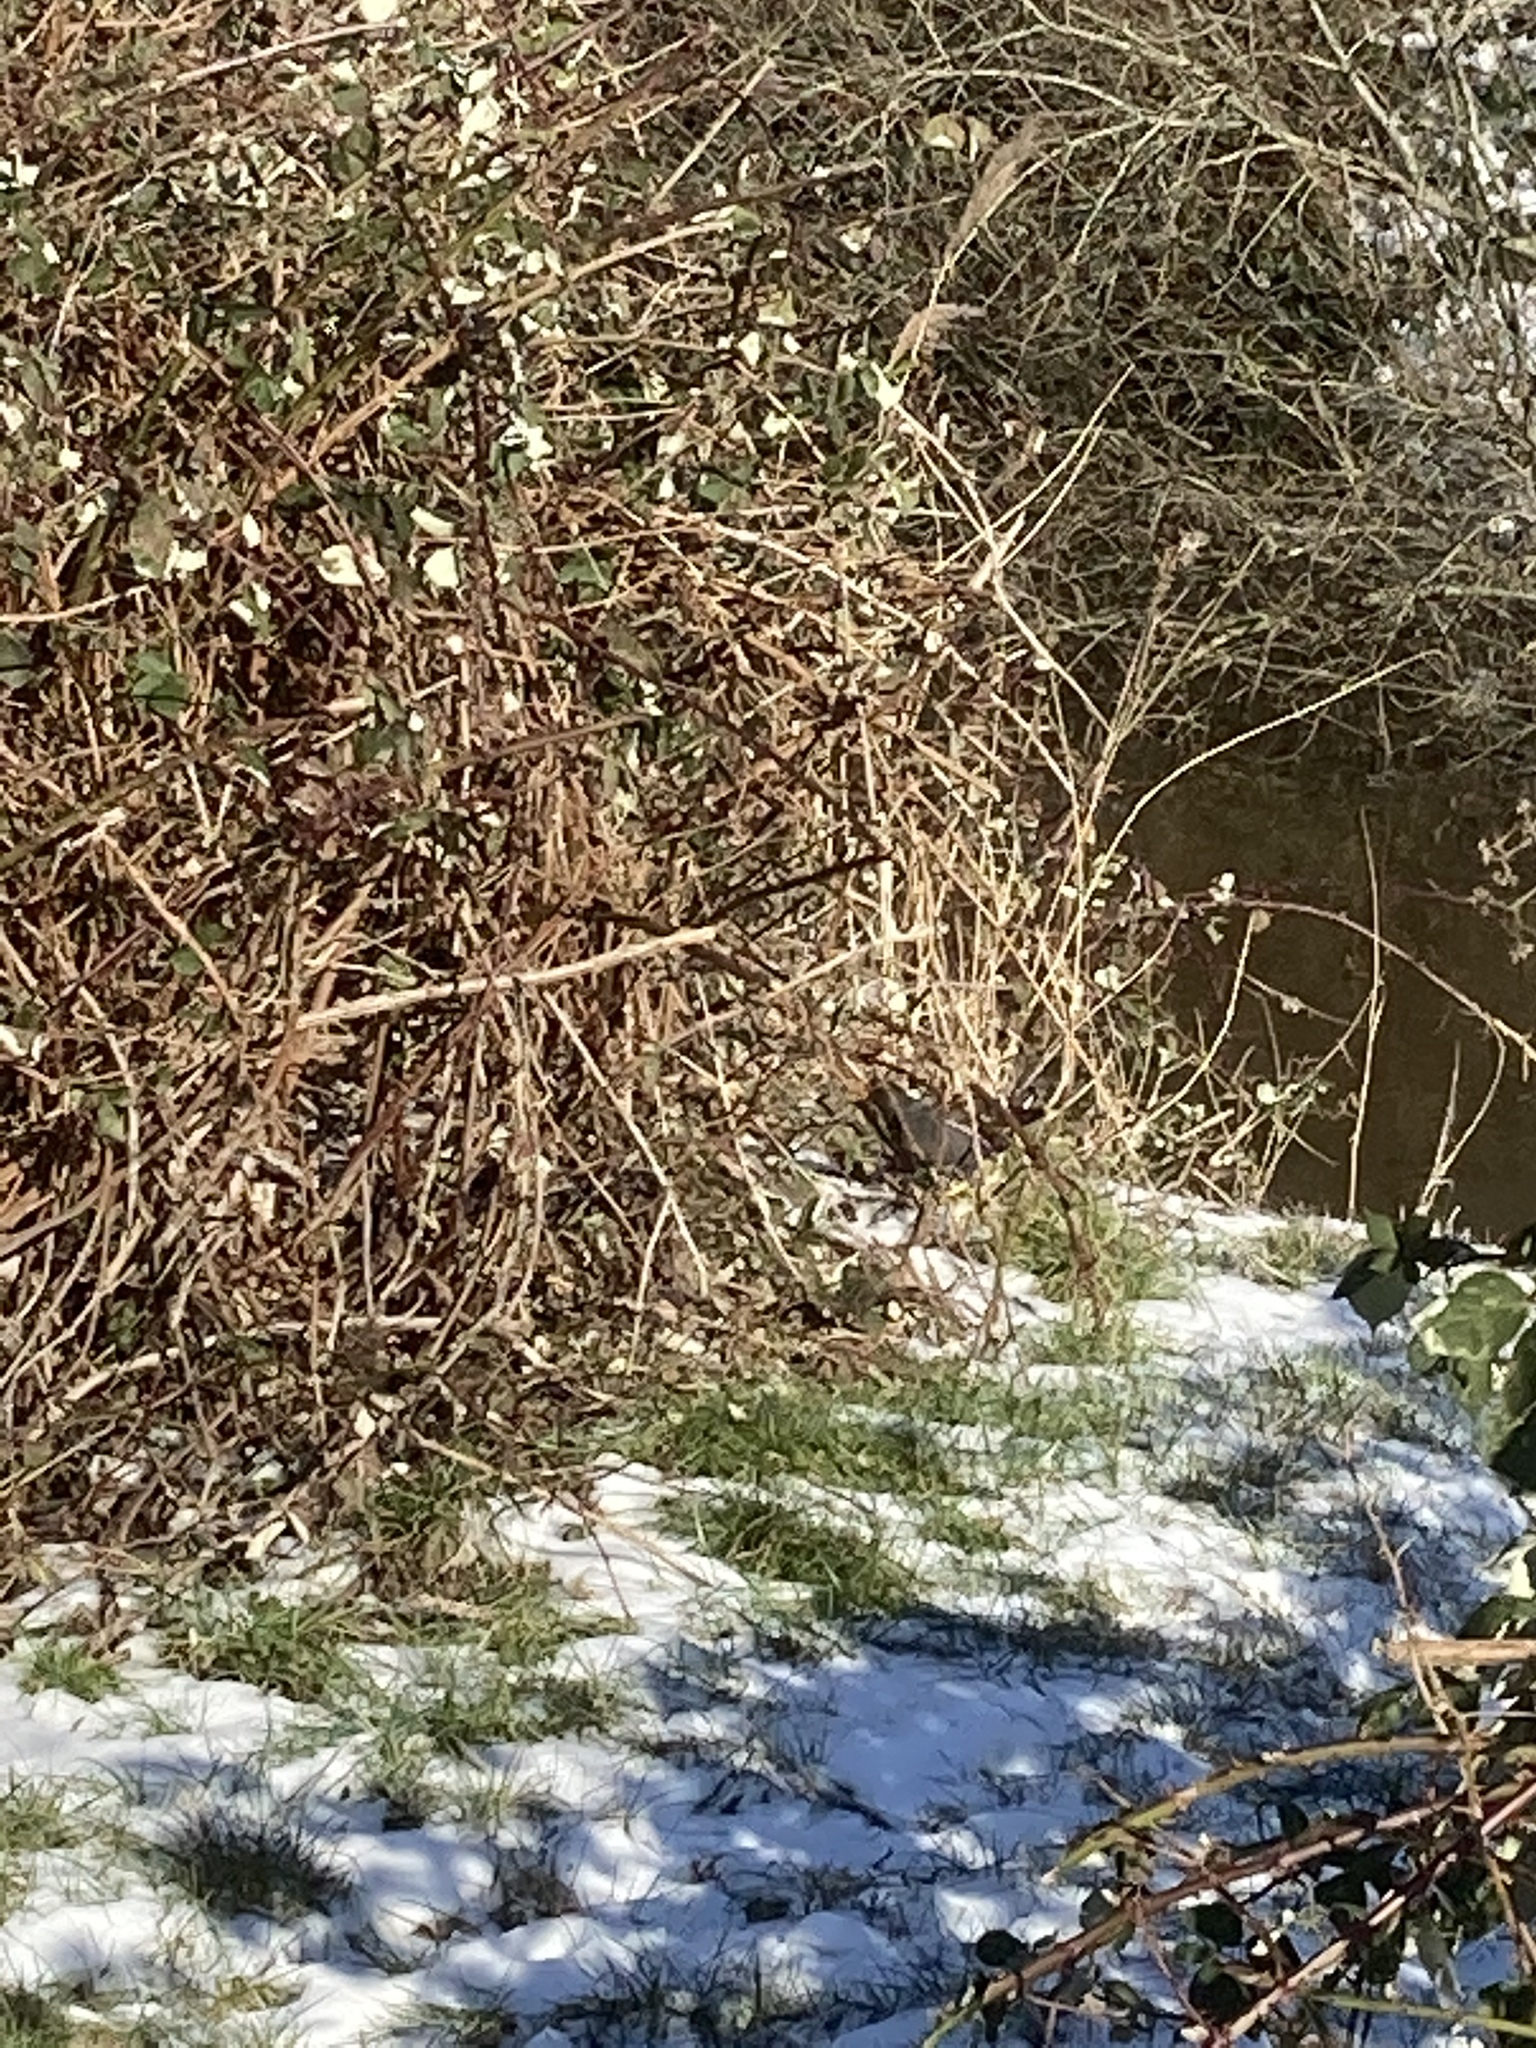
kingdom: Animalia
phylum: Chordata
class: Aves
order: Gruiformes
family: Rallidae
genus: Gallinula
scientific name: Gallinula chloropus
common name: Common moorhen
